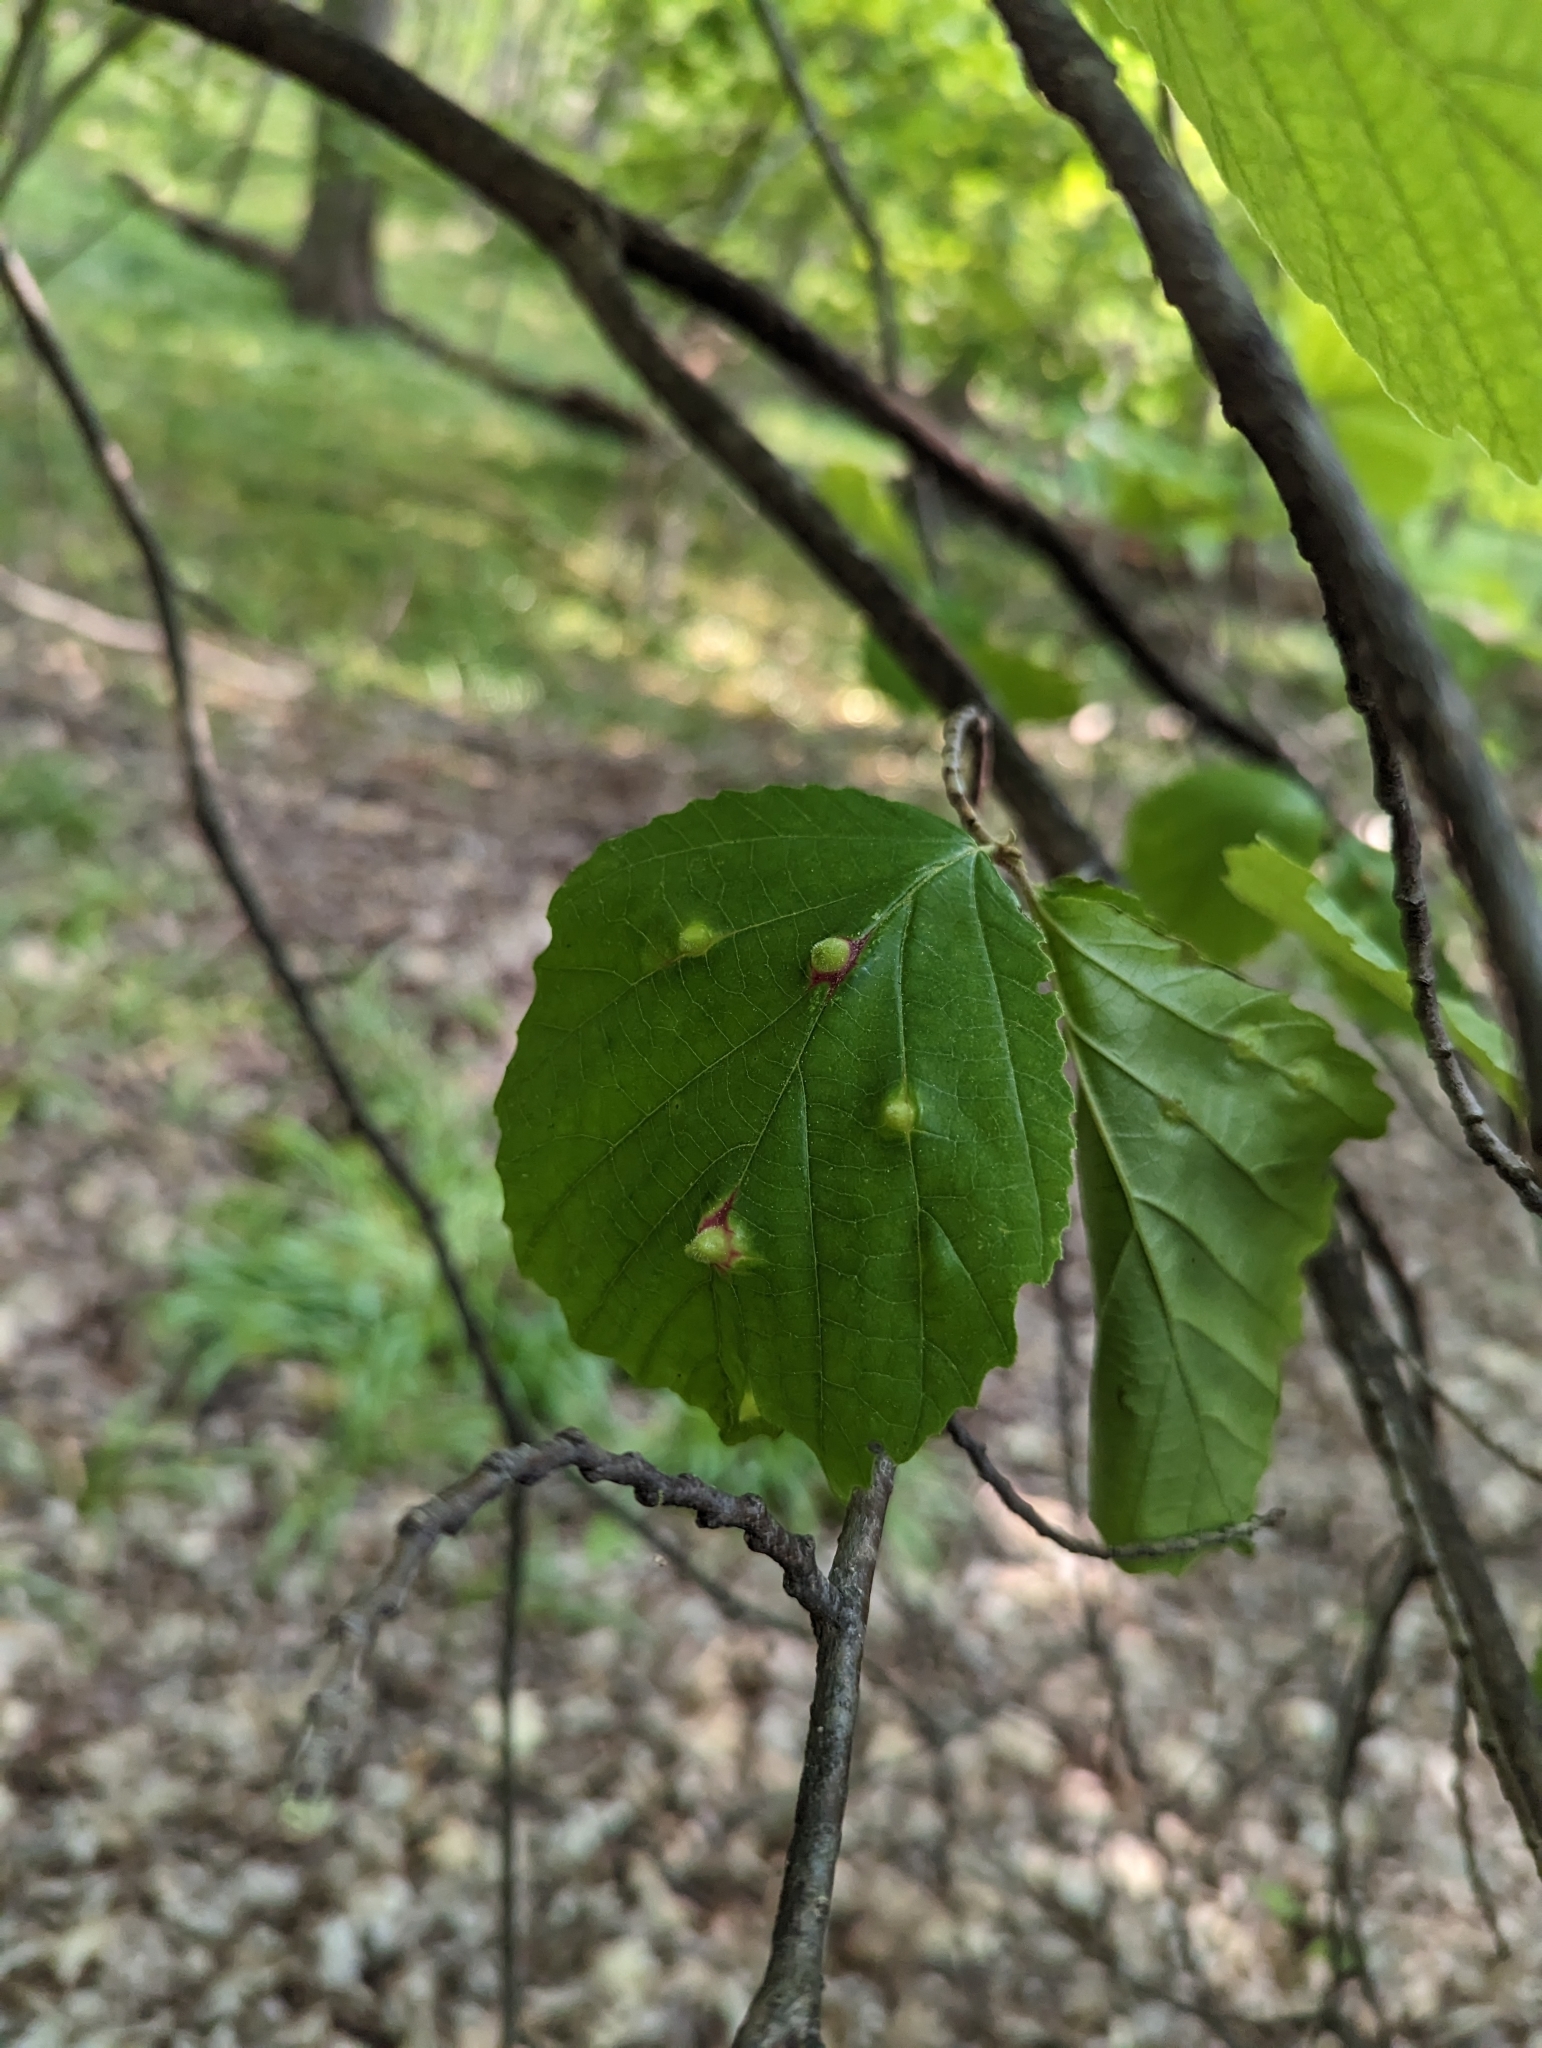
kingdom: Plantae
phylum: Tracheophyta
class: Magnoliopsida
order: Saxifragales
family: Hamamelidaceae
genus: Hamamelis
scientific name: Hamamelis virginiana
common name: Witch-hazel
